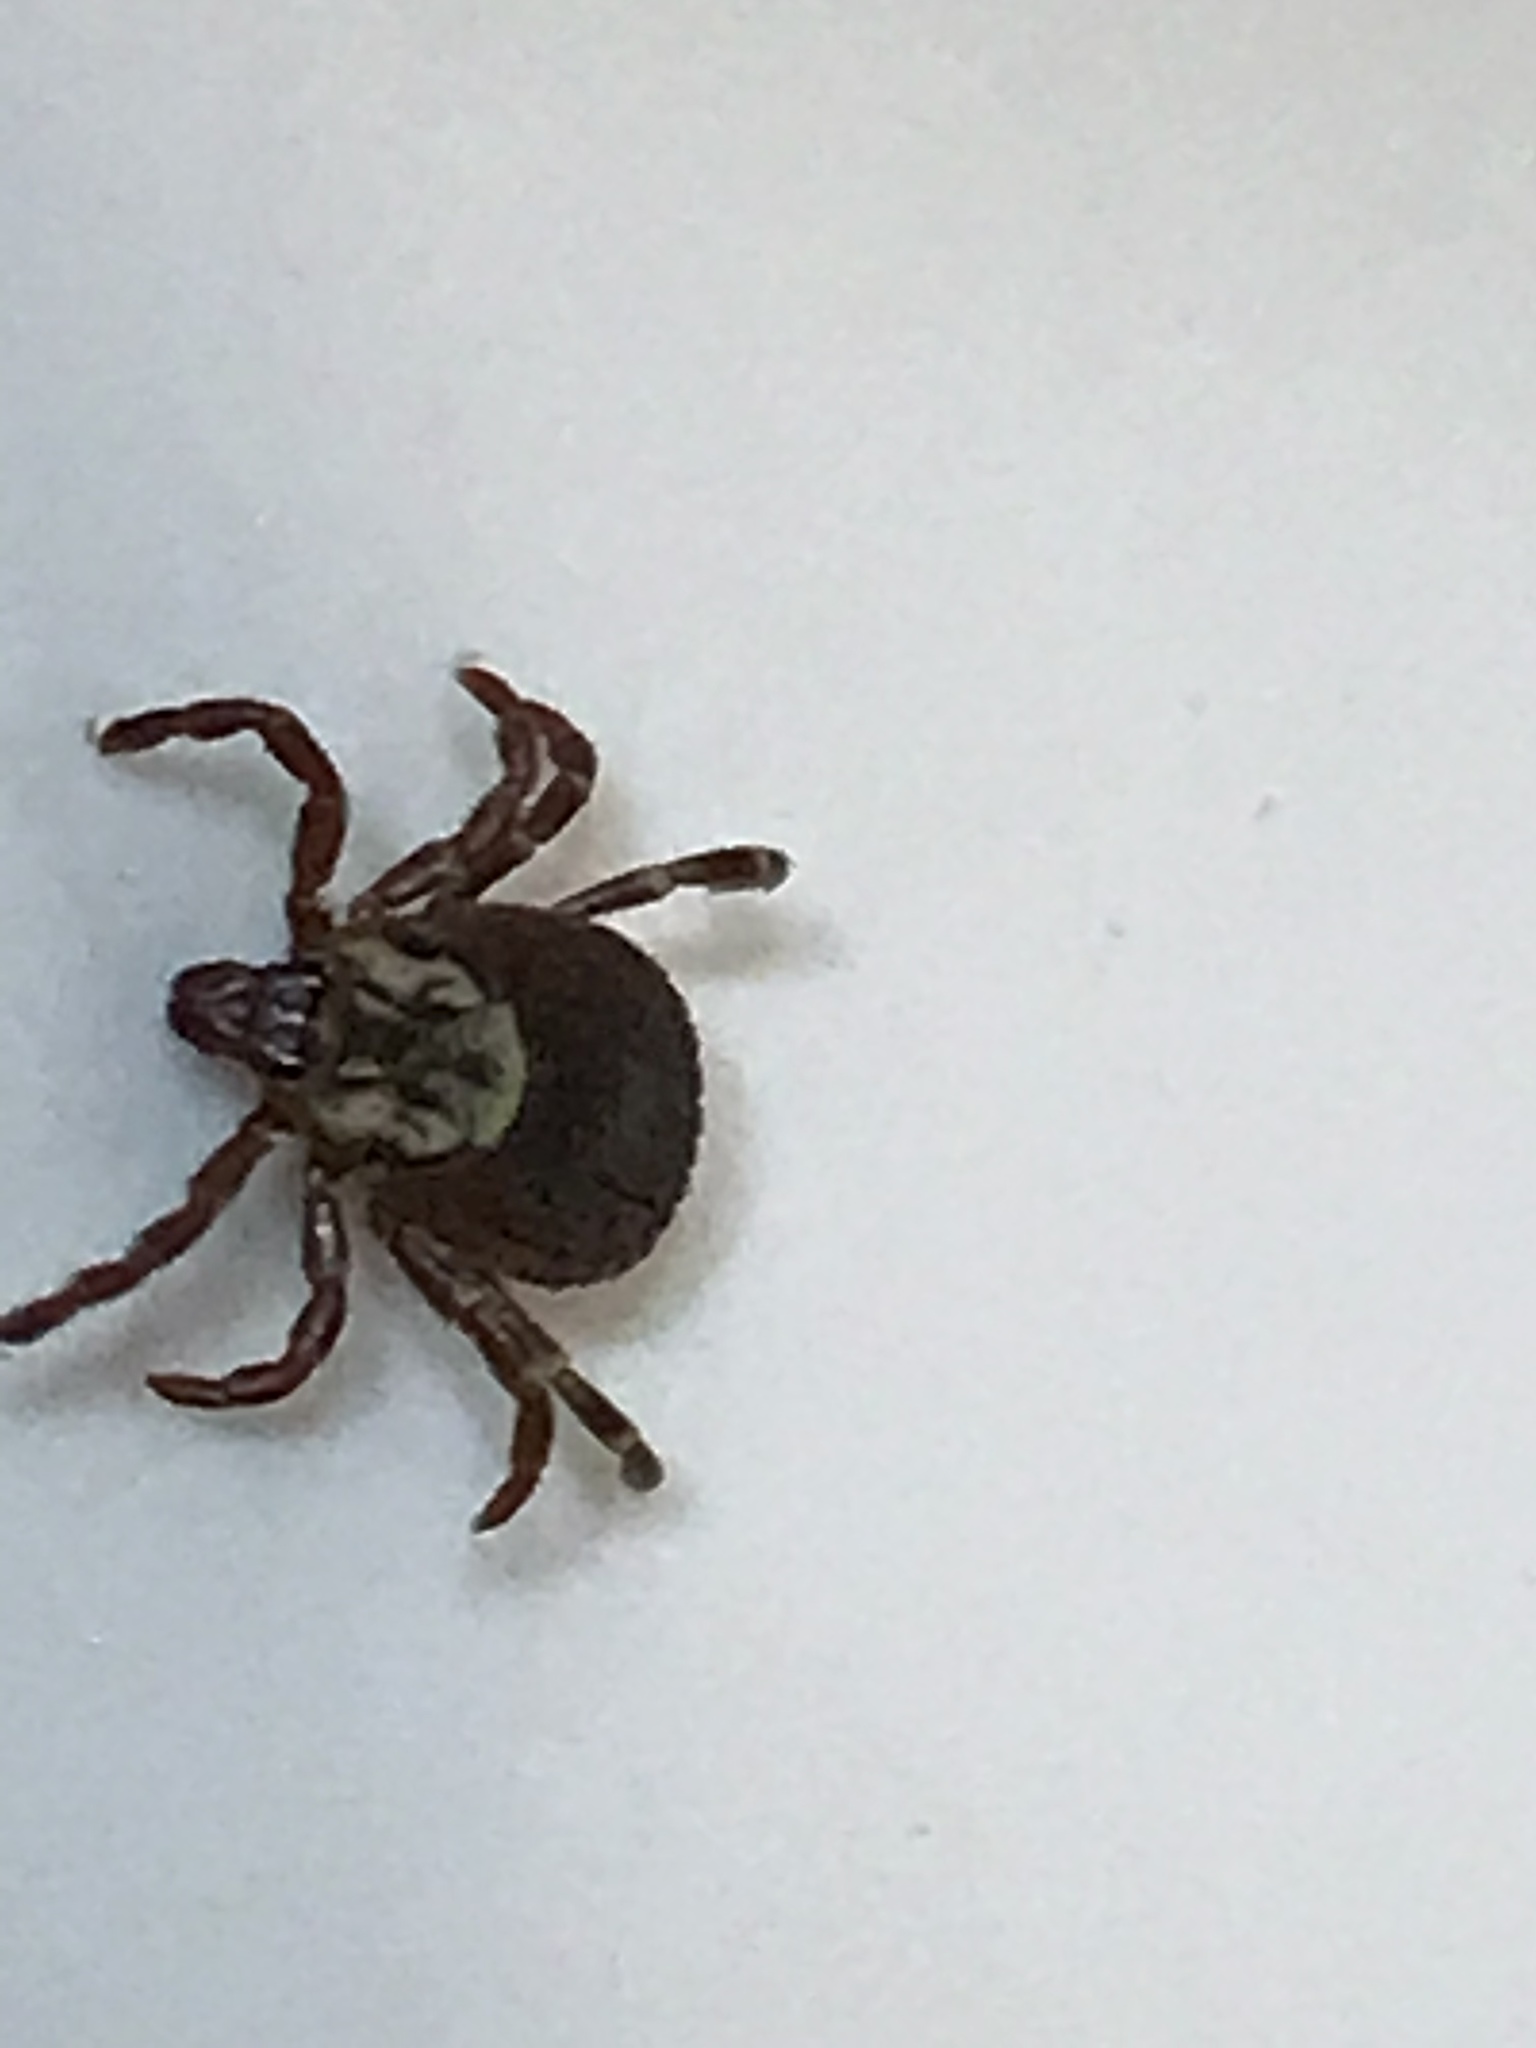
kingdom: Animalia
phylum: Arthropoda
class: Arachnida
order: Ixodida
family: Ixodidae
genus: Dermacentor
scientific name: Dermacentor variabilis
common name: American dog tick
